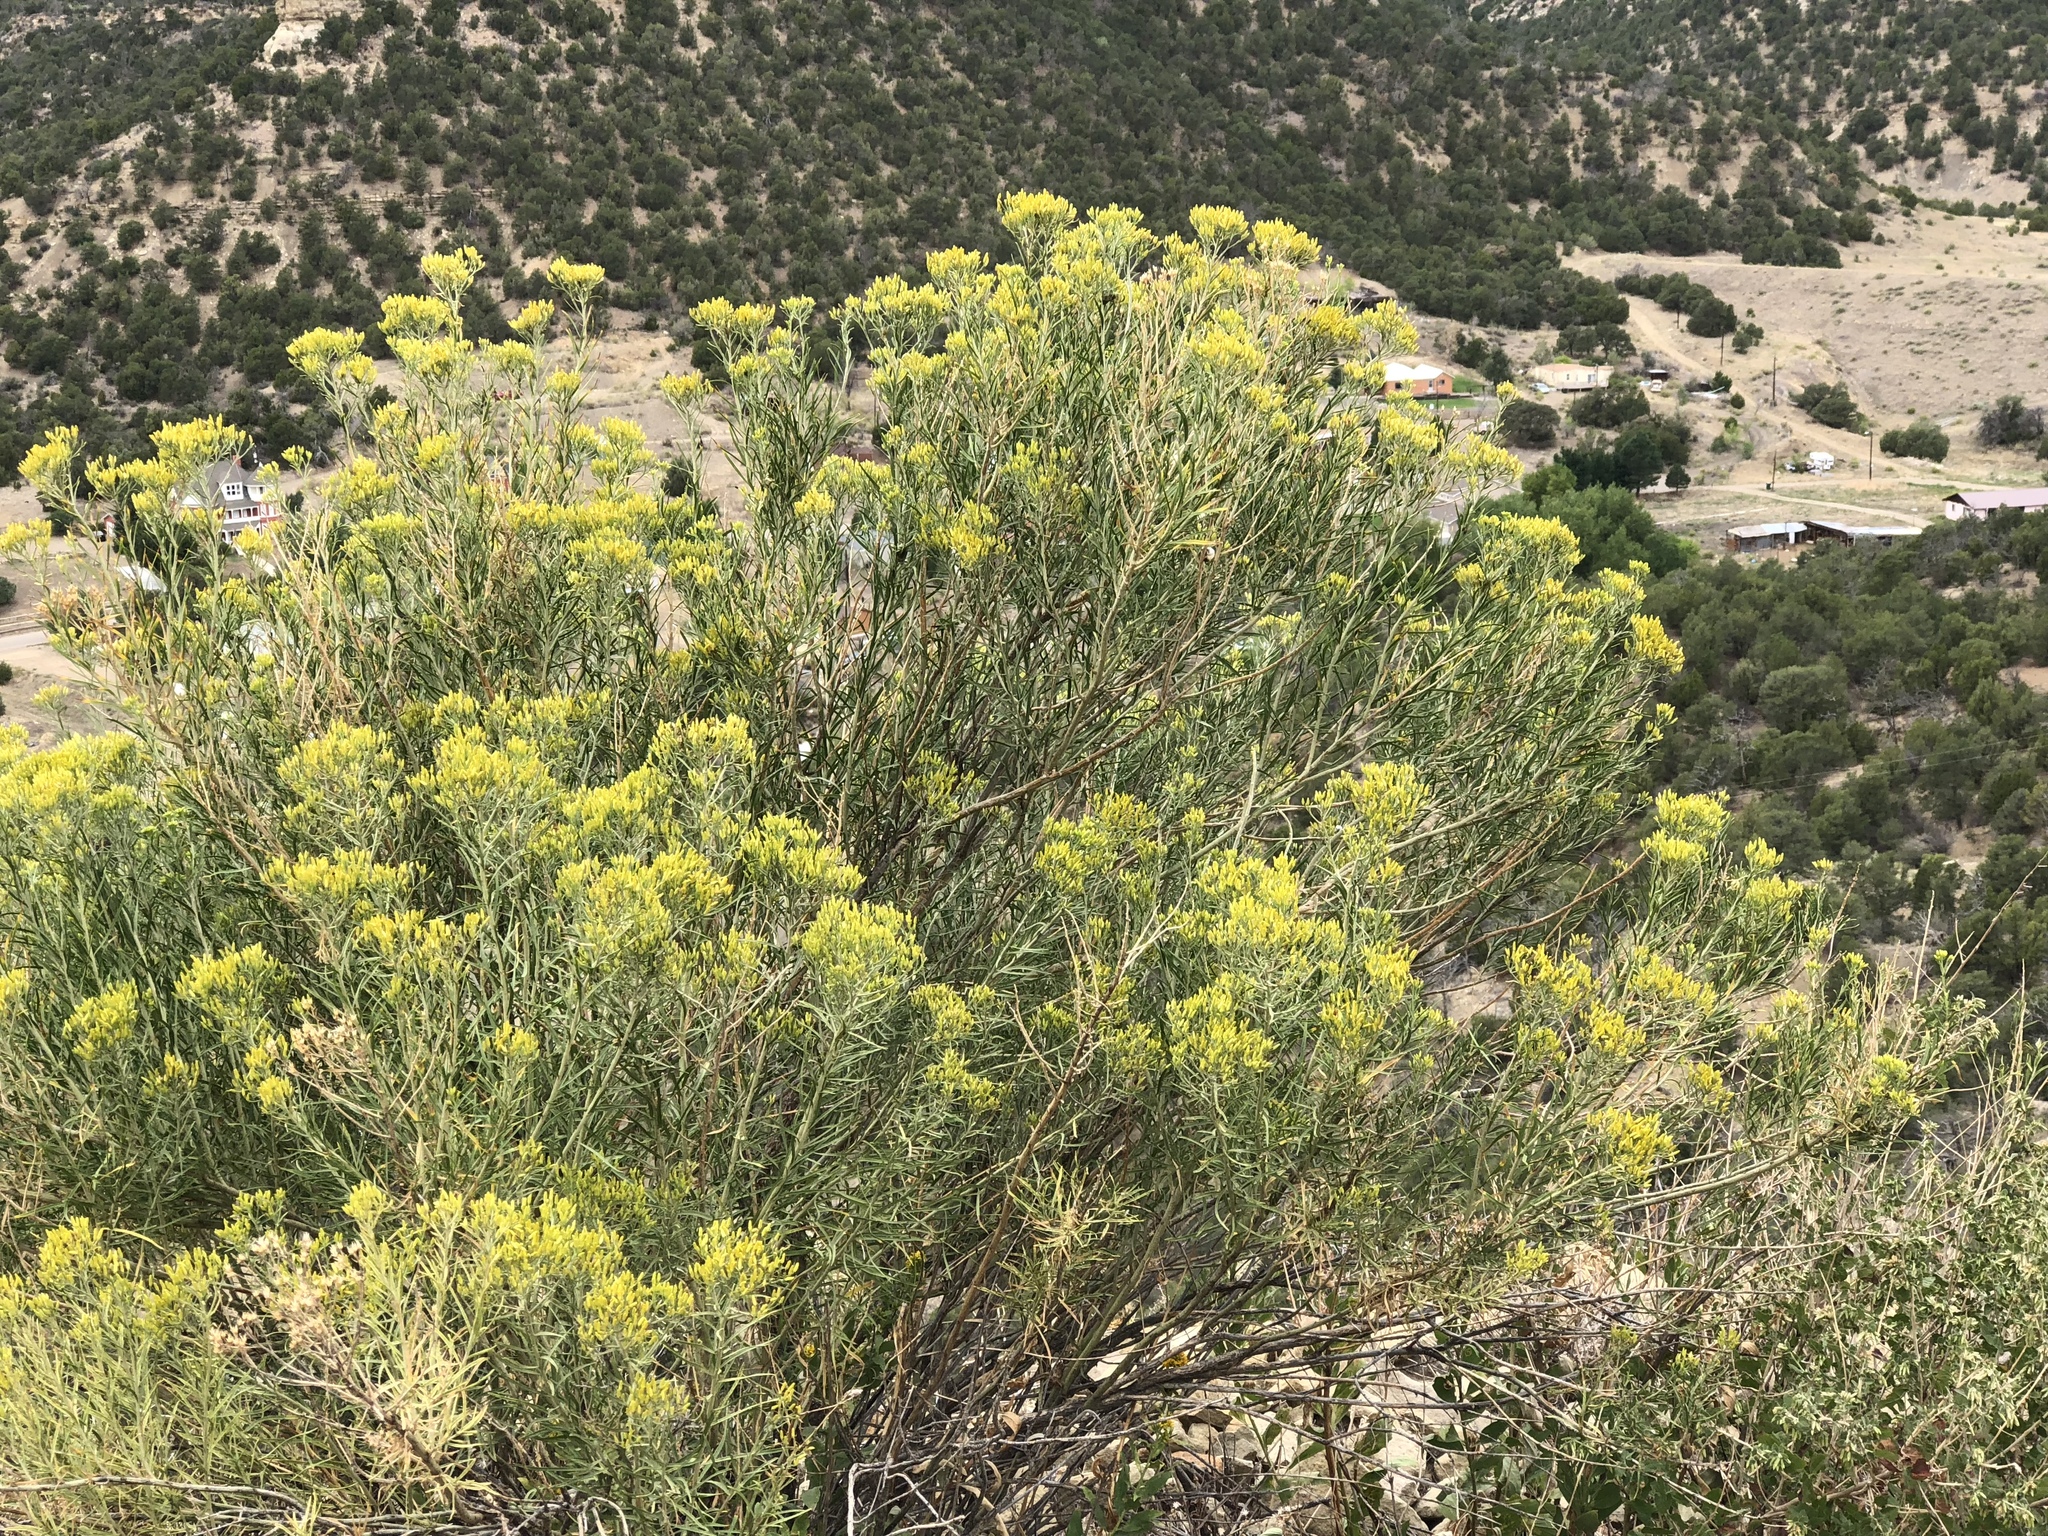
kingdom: Plantae
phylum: Tracheophyta
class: Magnoliopsida
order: Asterales
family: Asteraceae
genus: Ericameria
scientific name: Ericameria nauseosa
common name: Rubber rabbitbrush
